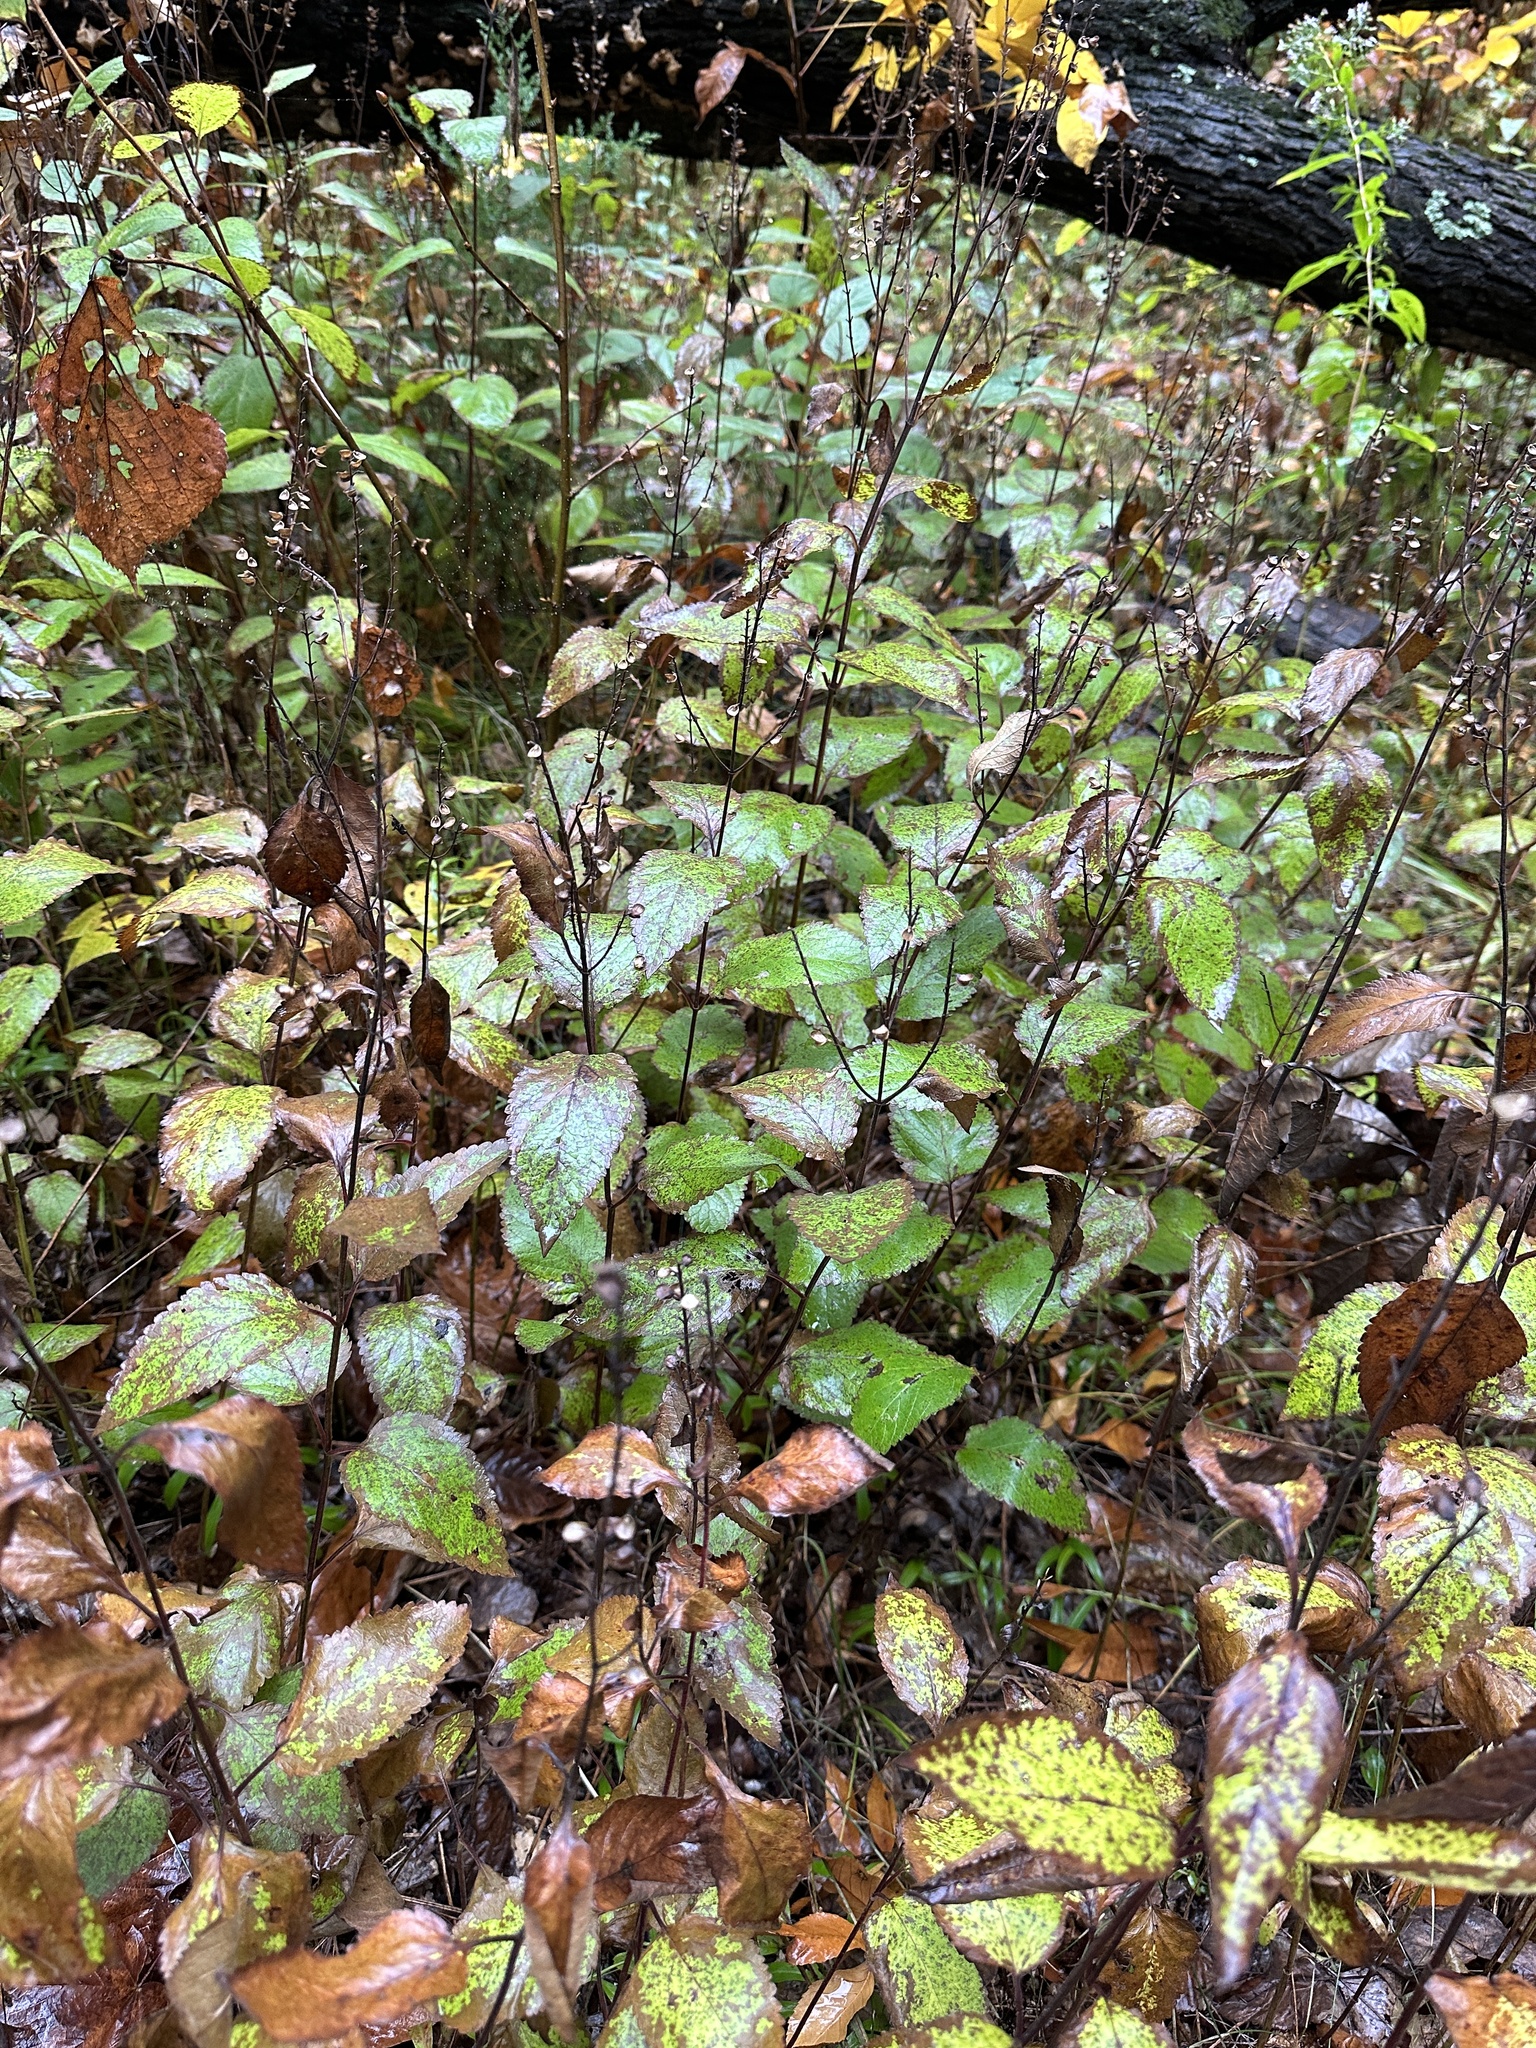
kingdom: Plantae
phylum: Tracheophyta
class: Magnoliopsida
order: Lamiales
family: Lamiaceae
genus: Scutellaria
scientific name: Scutellaria incana
